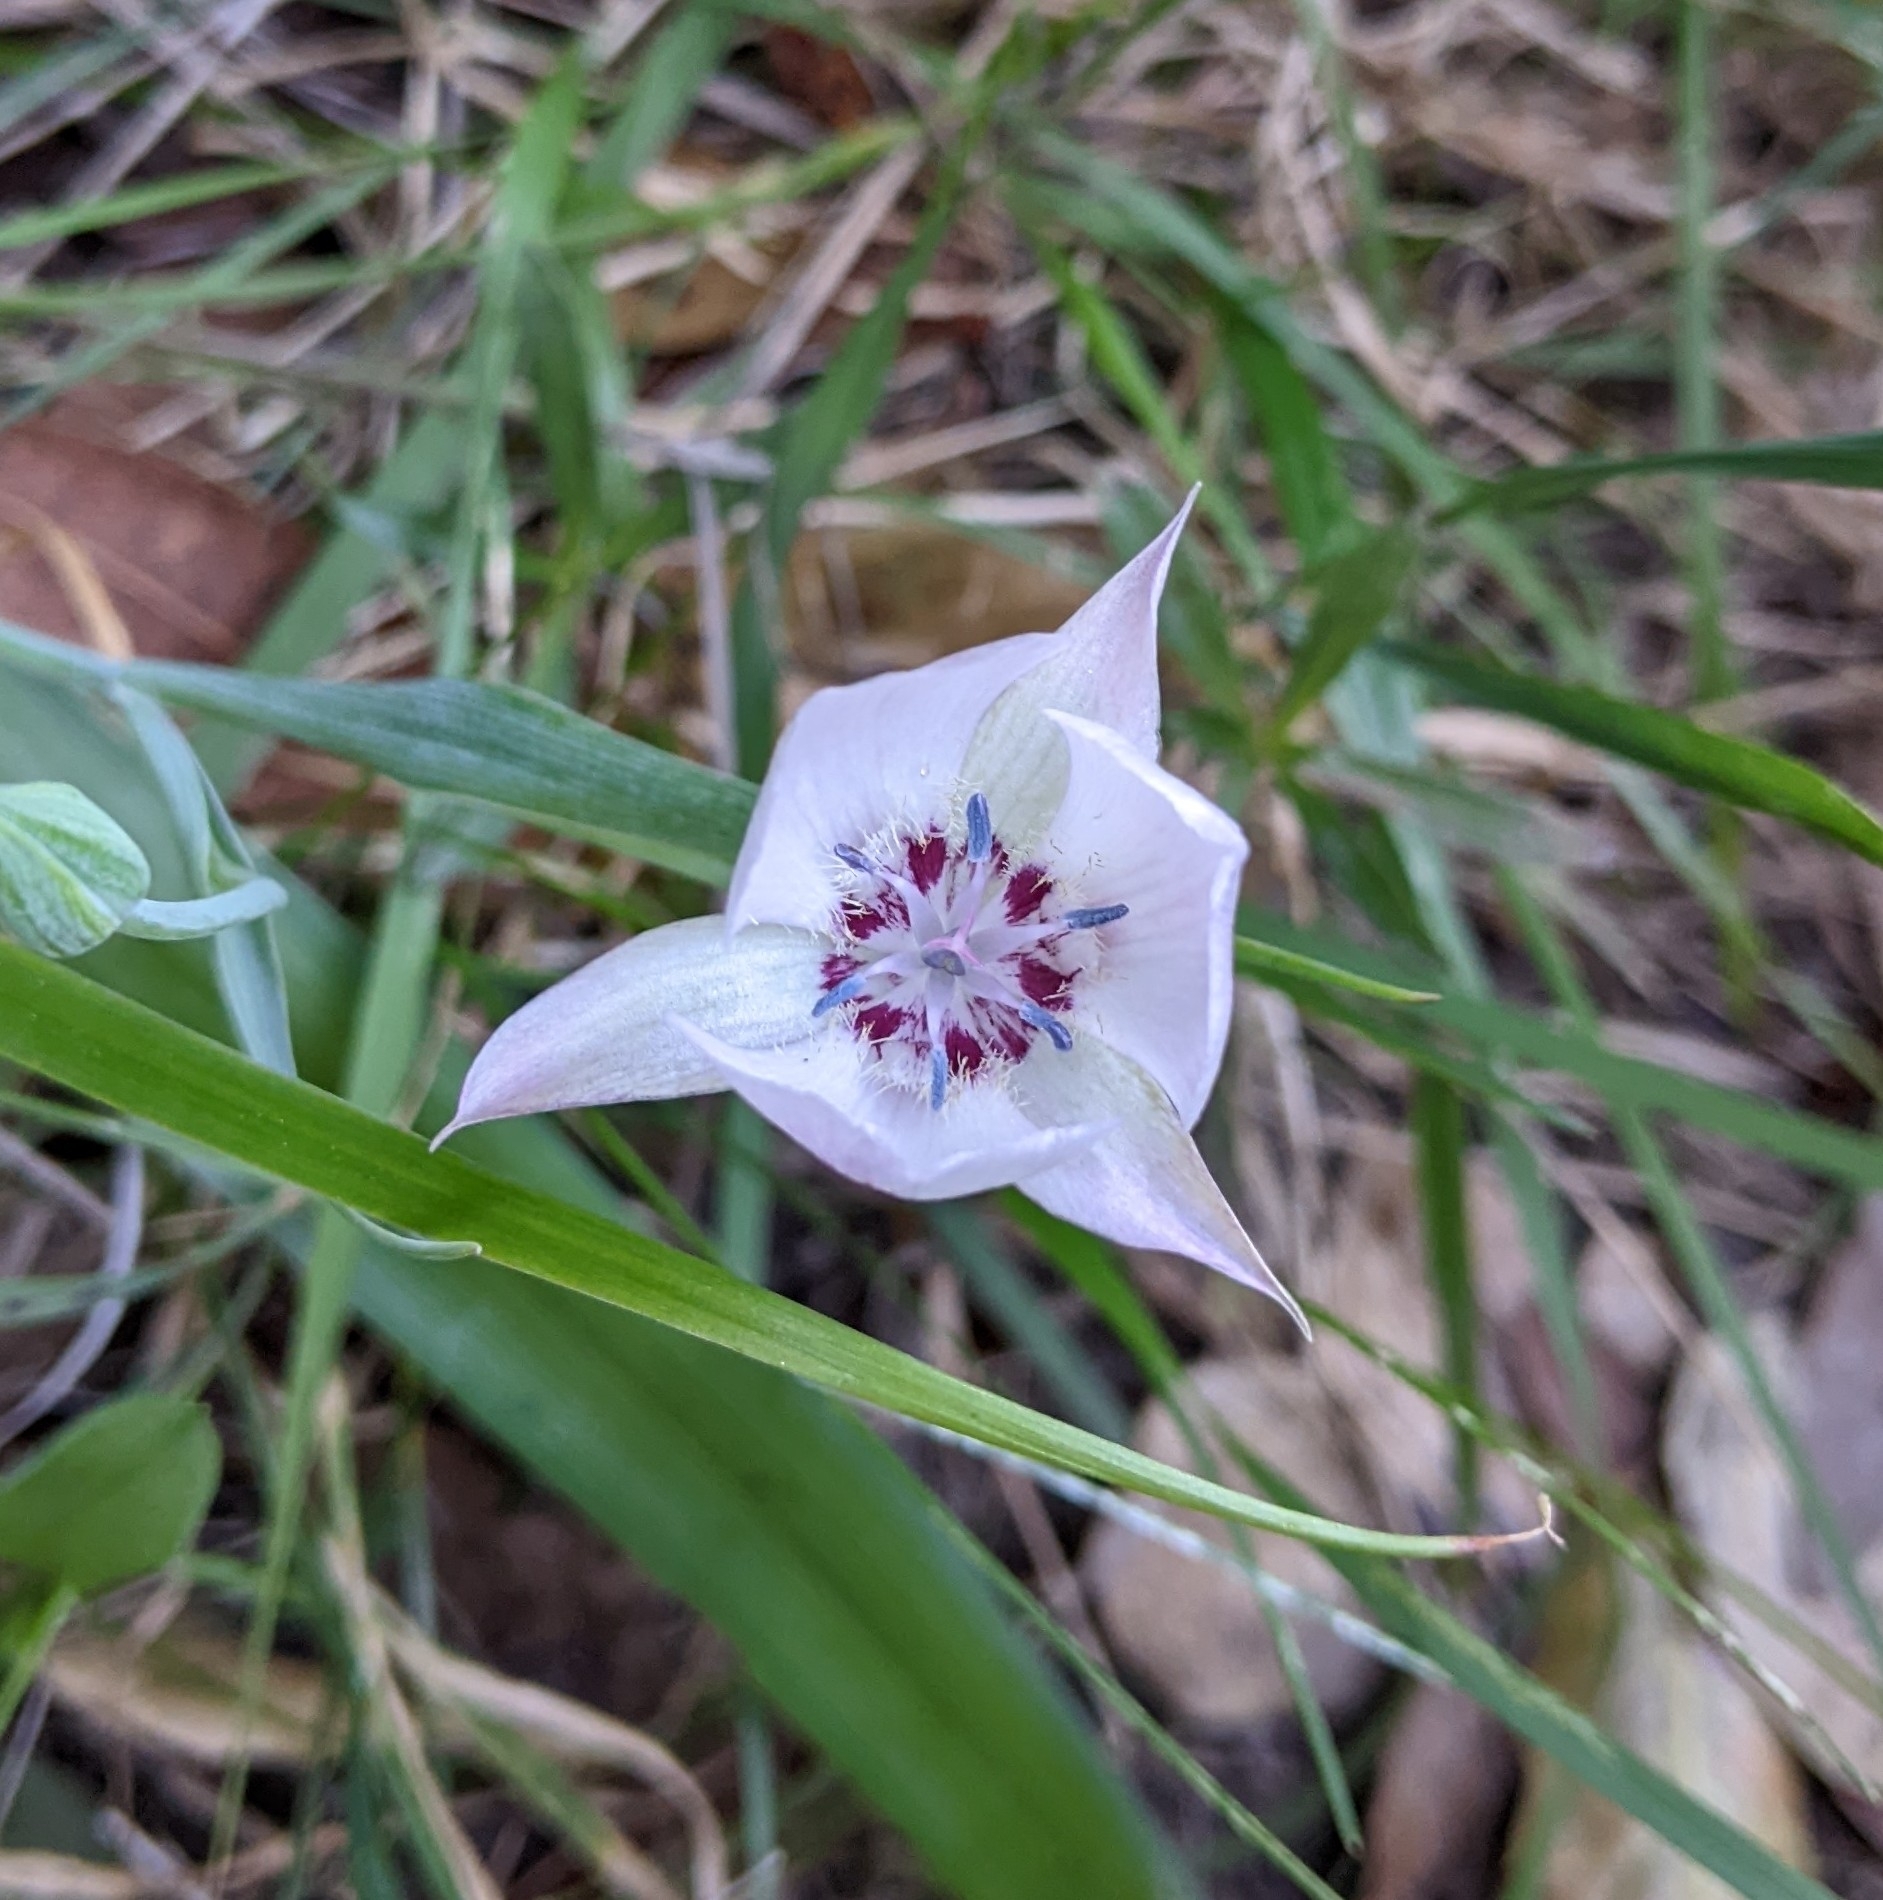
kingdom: Plantae
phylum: Tracheophyta
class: Liliopsida
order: Liliales
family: Liliaceae
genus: Calochortus
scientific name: Calochortus umbellatus
